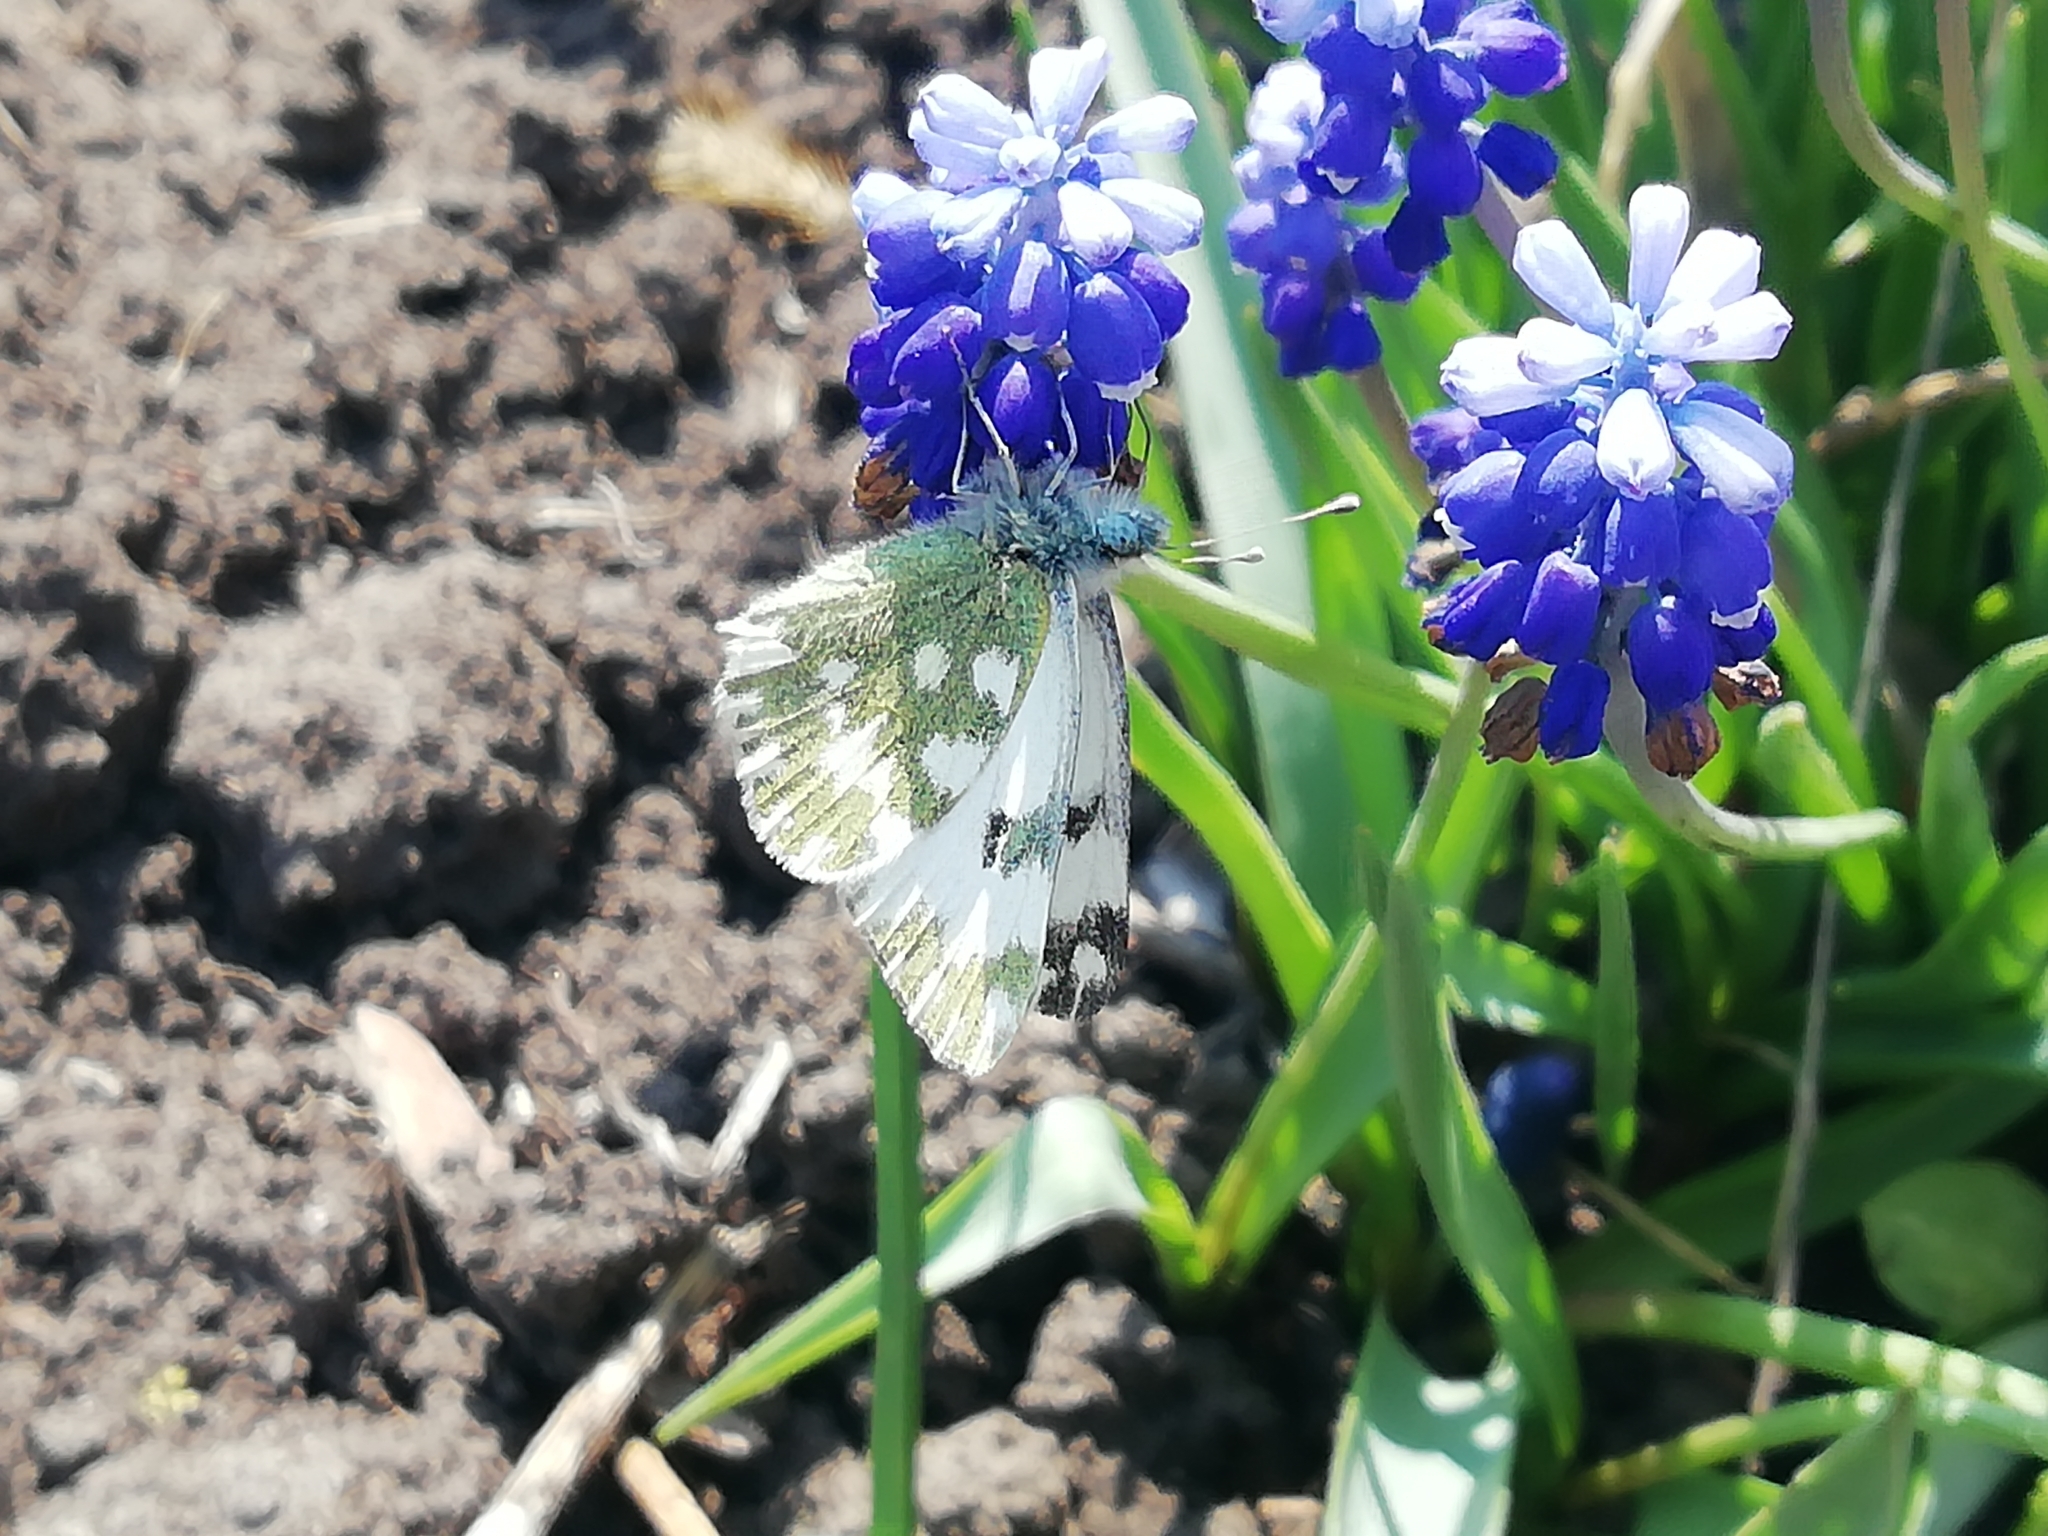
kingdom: Animalia
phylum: Arthropoda
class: Insecta
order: Lepidoptera
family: Pieridae
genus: Pontia
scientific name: Pontia edusa
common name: Eastern bath white
